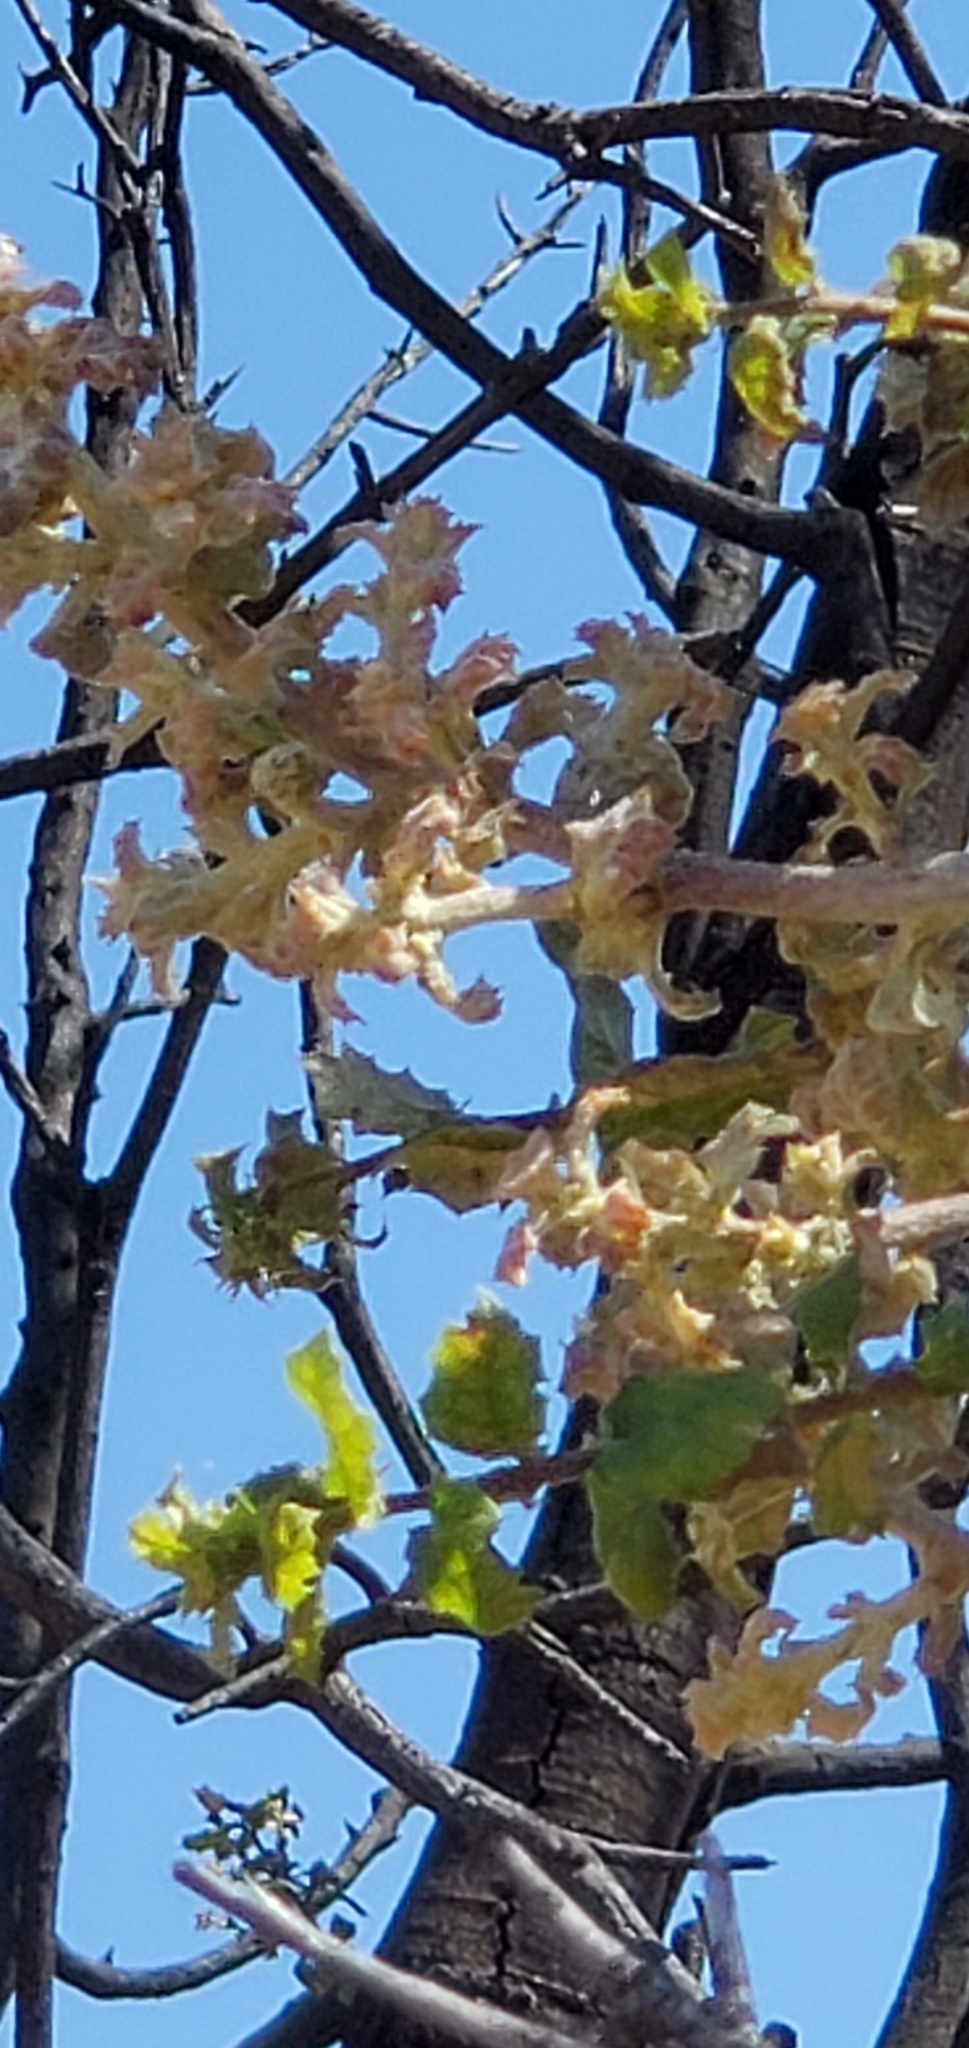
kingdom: Plantae
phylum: Tracheophyta
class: Magnoliopsida
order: Fagales
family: Fagaceae
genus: Quercus
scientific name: Quercus agrifolia
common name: California live oak
